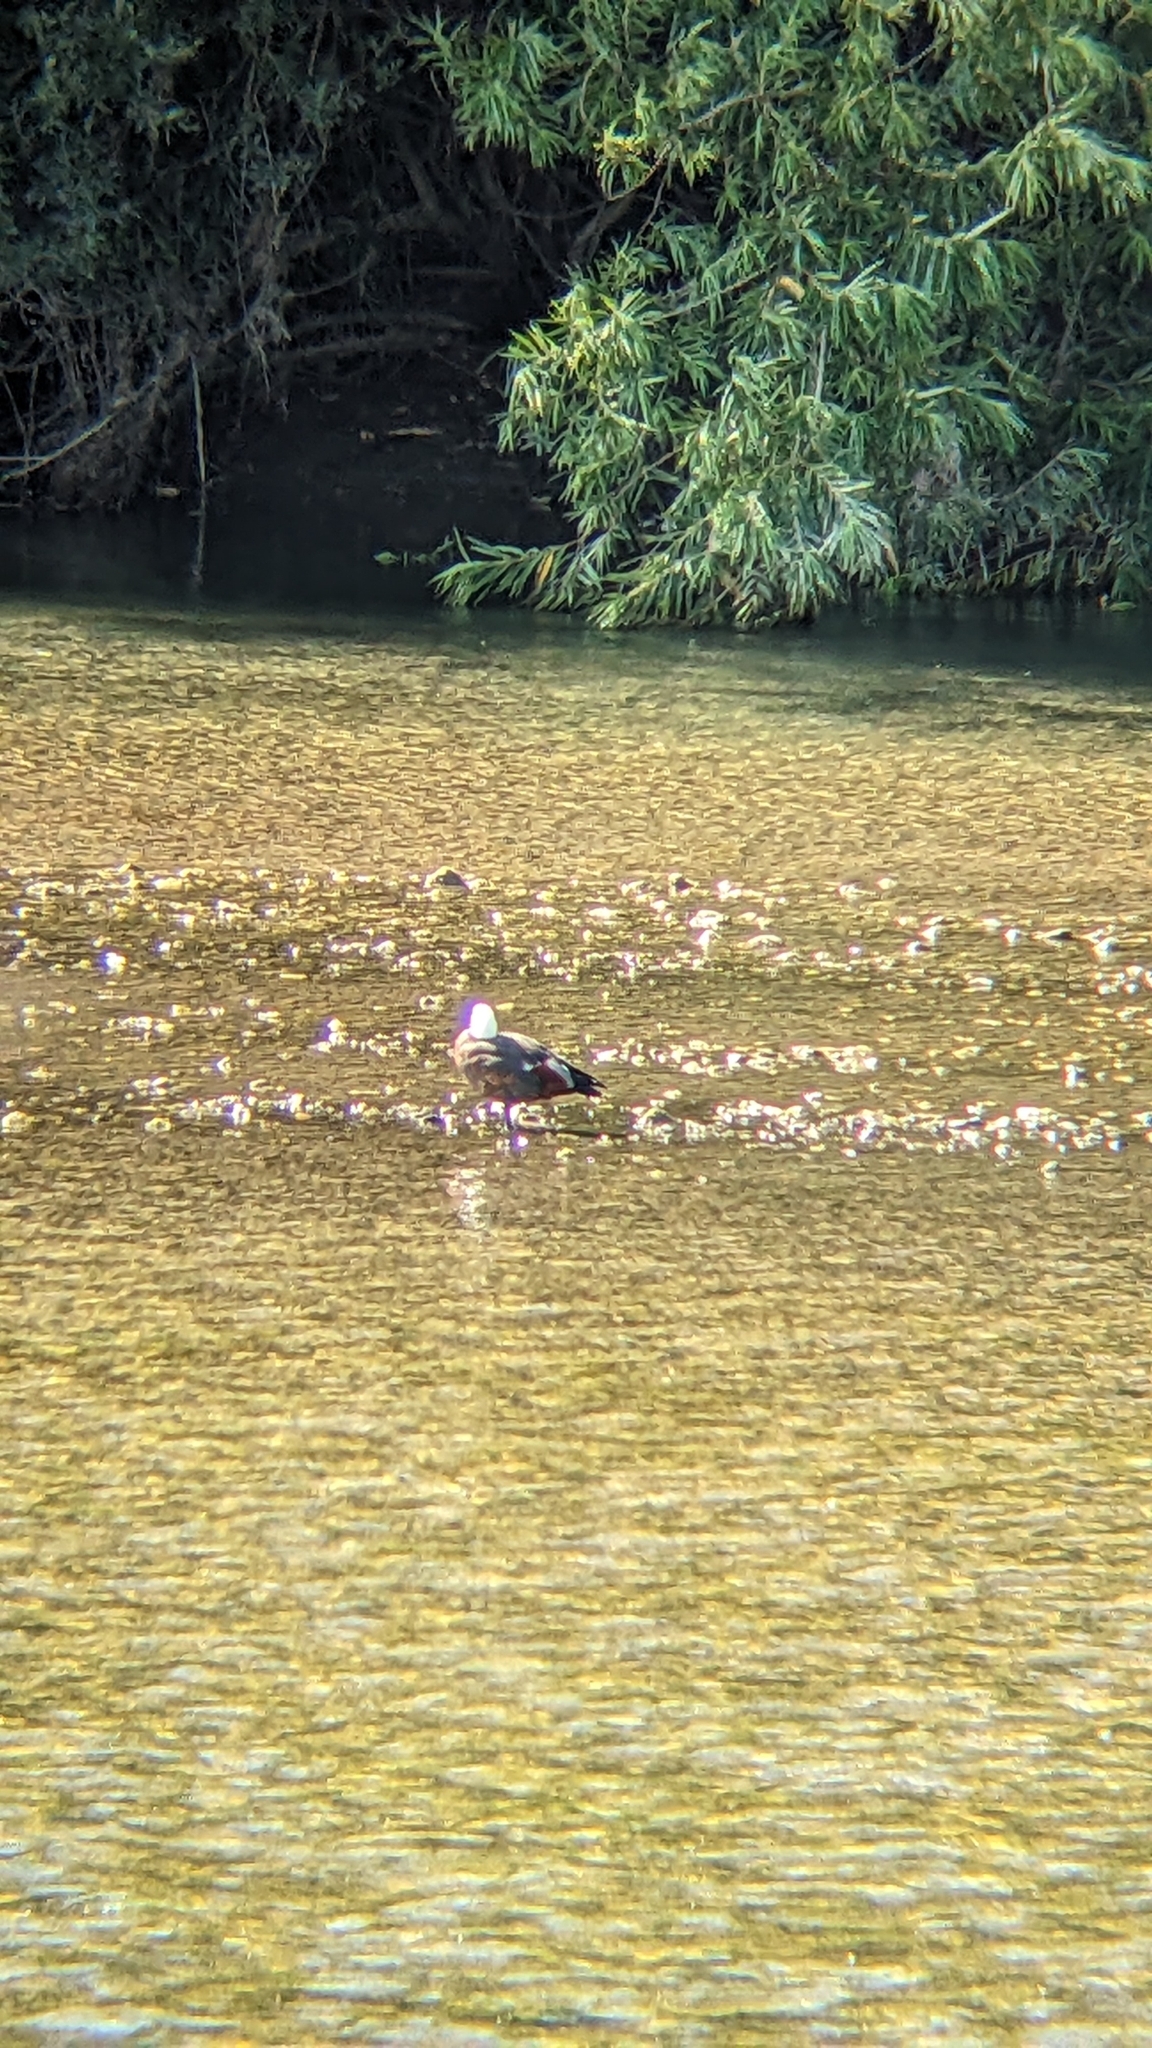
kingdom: Animalia
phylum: Chordata
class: Aves
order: Anseriformes
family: Anatidae
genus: Tadorna
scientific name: Tadorna variegata
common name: Paradise shelduck
